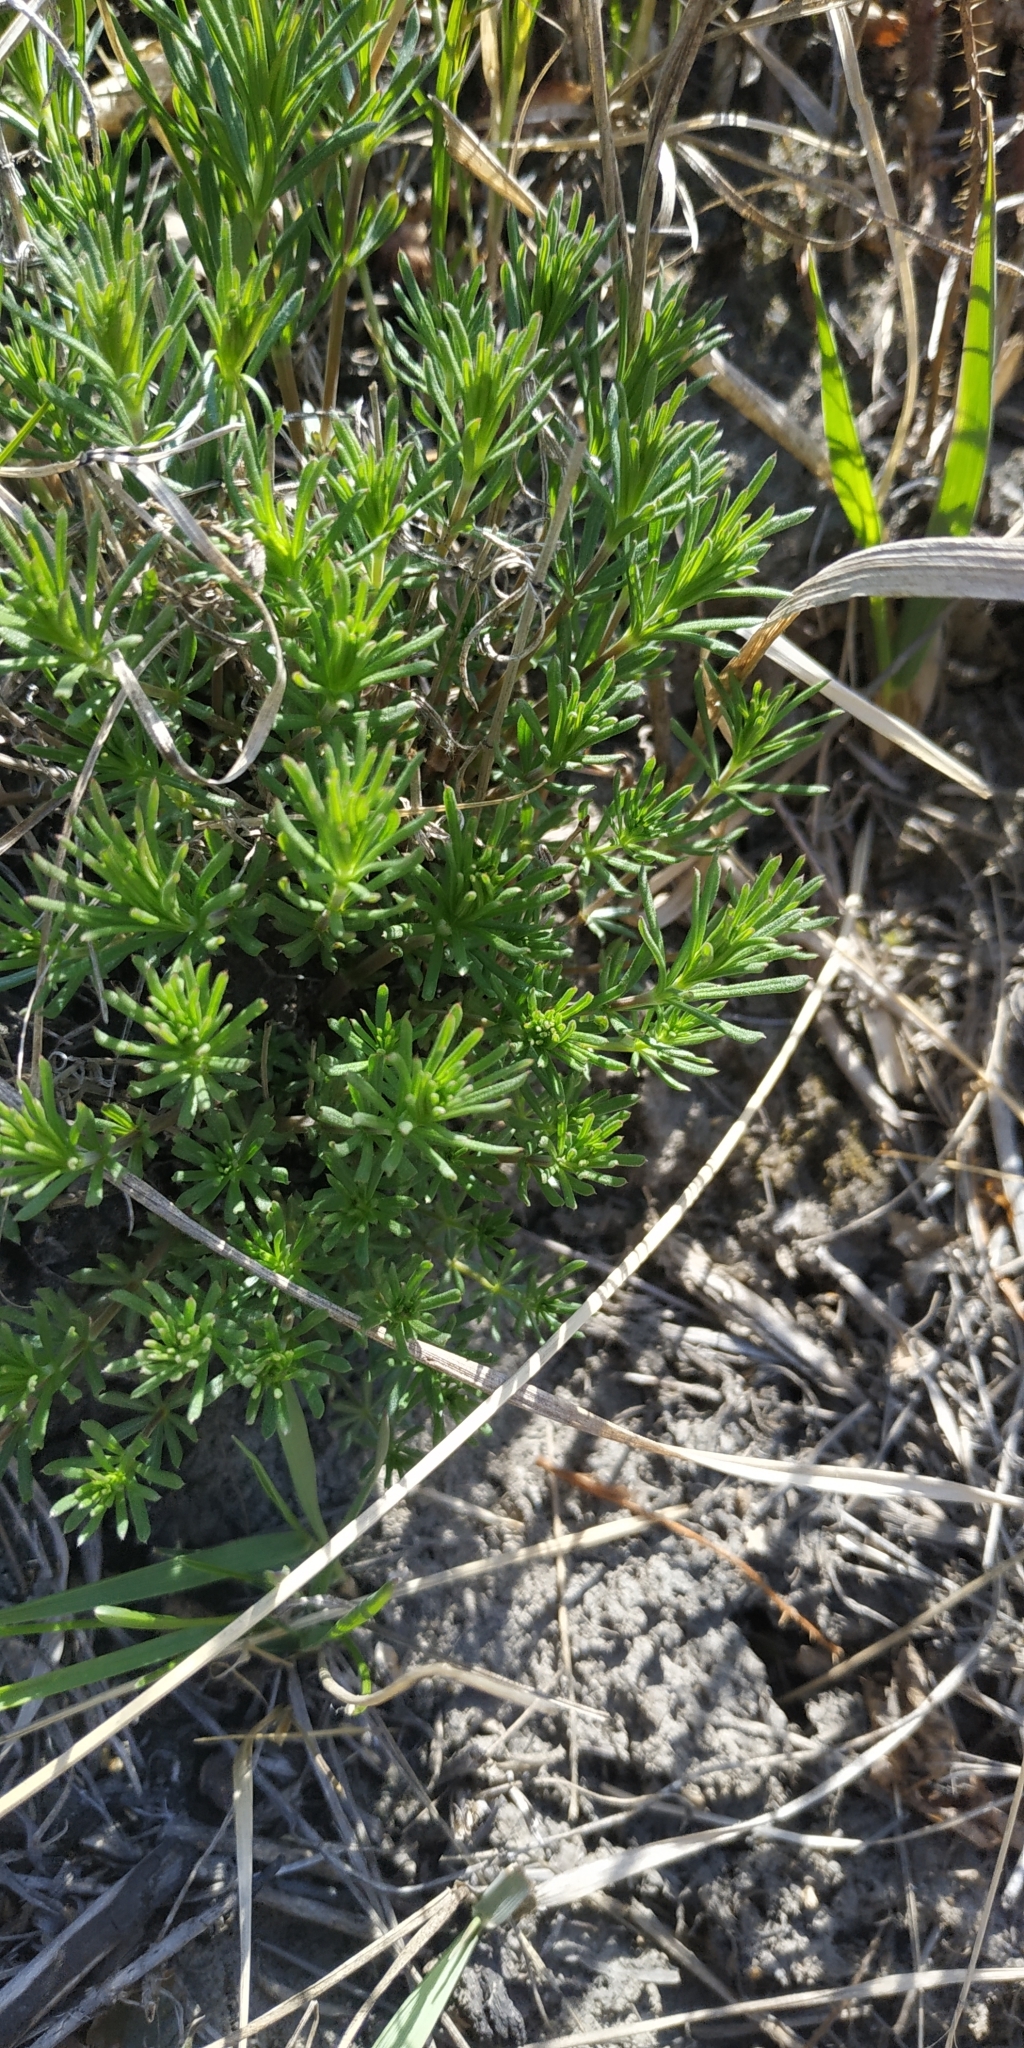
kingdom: Plantae
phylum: Tracheophyta
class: Magnoliopsida
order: Gentianales
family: Rubiaceae
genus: Galium
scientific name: Galium verum
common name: Lady's bedstraw
